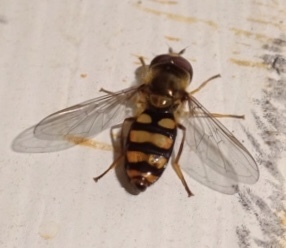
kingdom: Animalia
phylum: Arthropoda
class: Insecta
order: Diptera
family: Syrphidae
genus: Eupeodes
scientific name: Eupeodes
